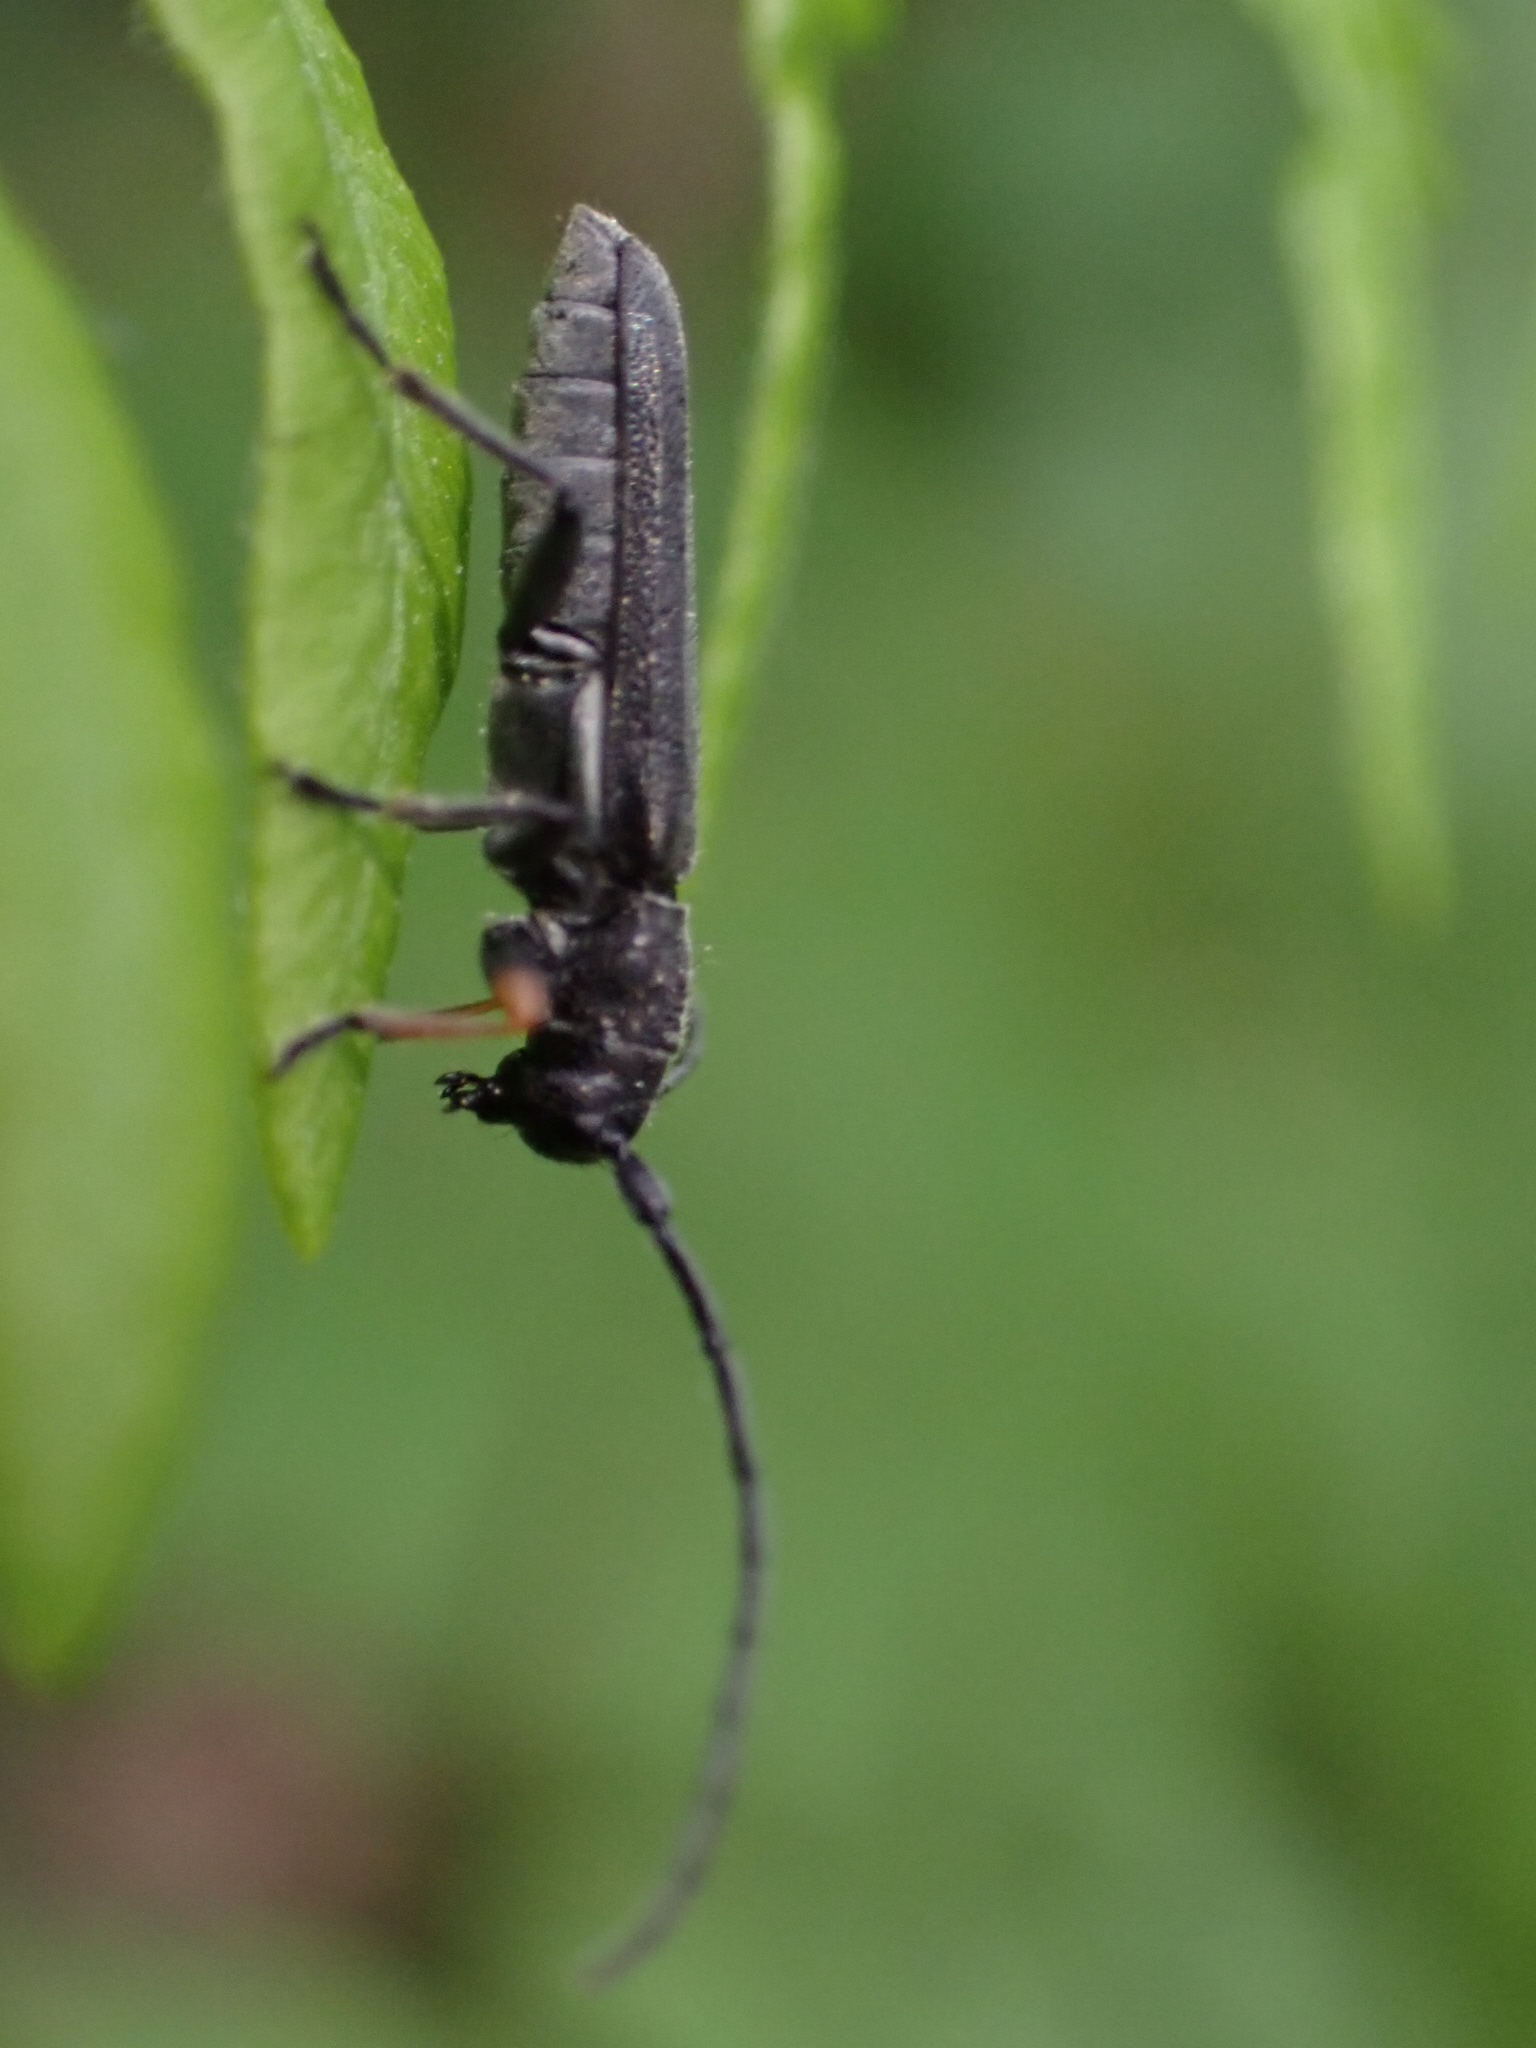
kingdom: Animalia
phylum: Arthropoda
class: Insecta
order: Coleoptera
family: Cerambycidae
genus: Phytoecia
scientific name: Phytoecia cylindrica
